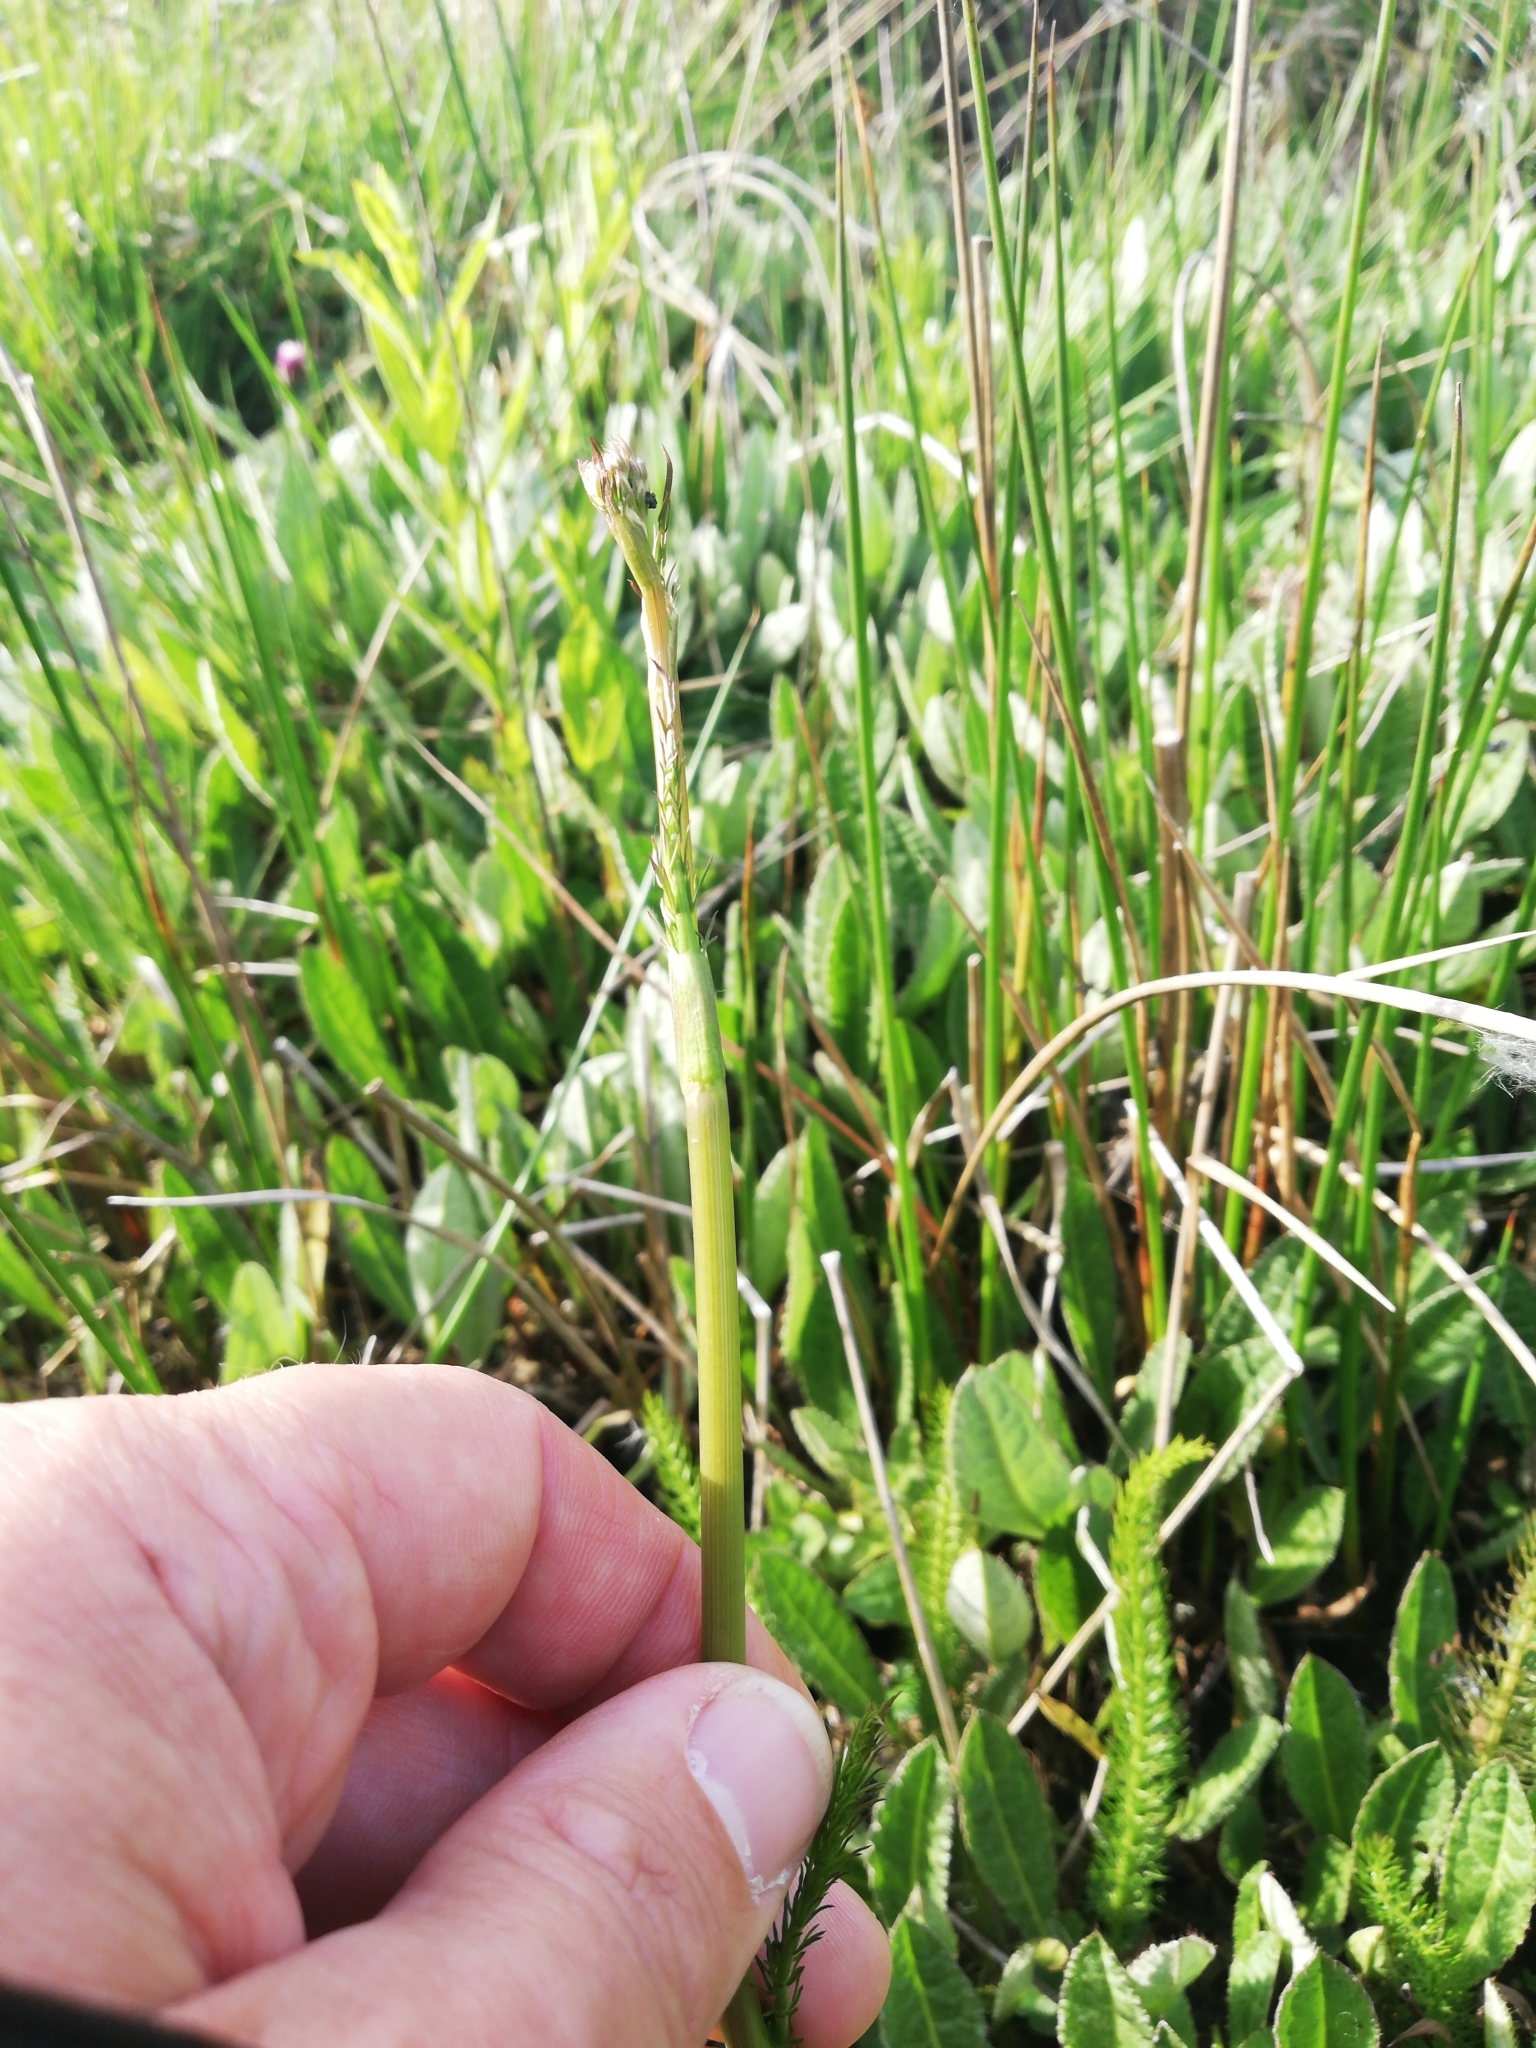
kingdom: Plantae
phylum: Tracheophyta
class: Magnoliopsida
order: Apiales
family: Apiaceae
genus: Trocdaris
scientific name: Trocdaris verticillatum
